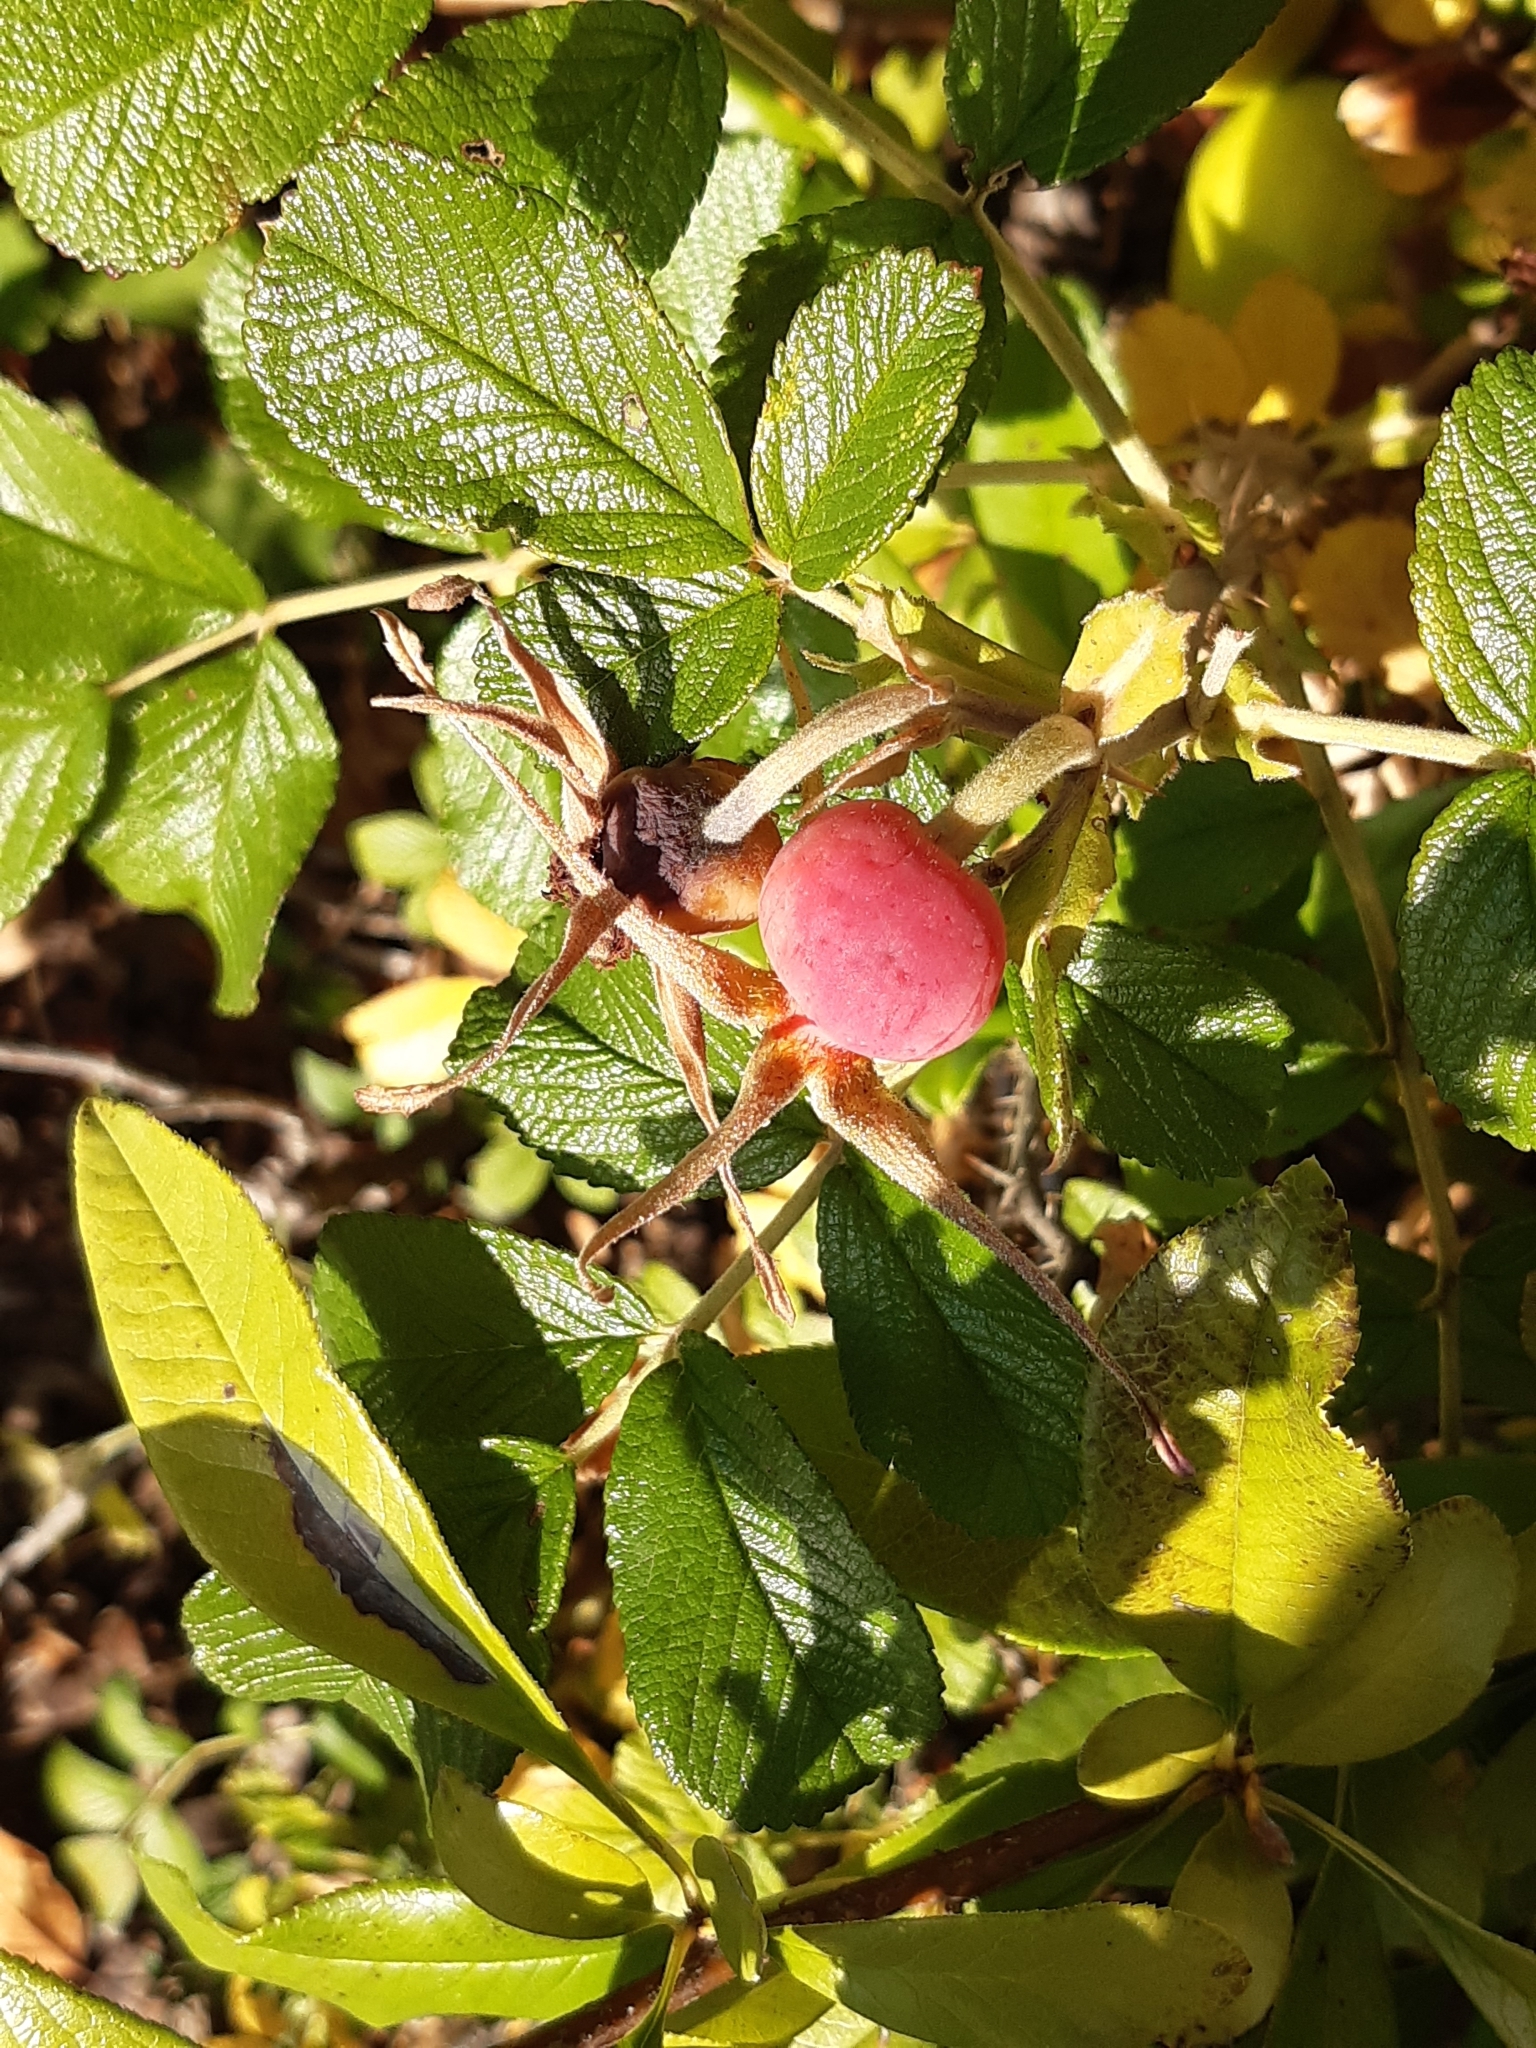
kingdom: Plantae
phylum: Tracheophyta
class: Magnoliopsida
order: Rosales
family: Rosaceae
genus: Rosa
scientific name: Rosa rugosa
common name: Japanese rose
